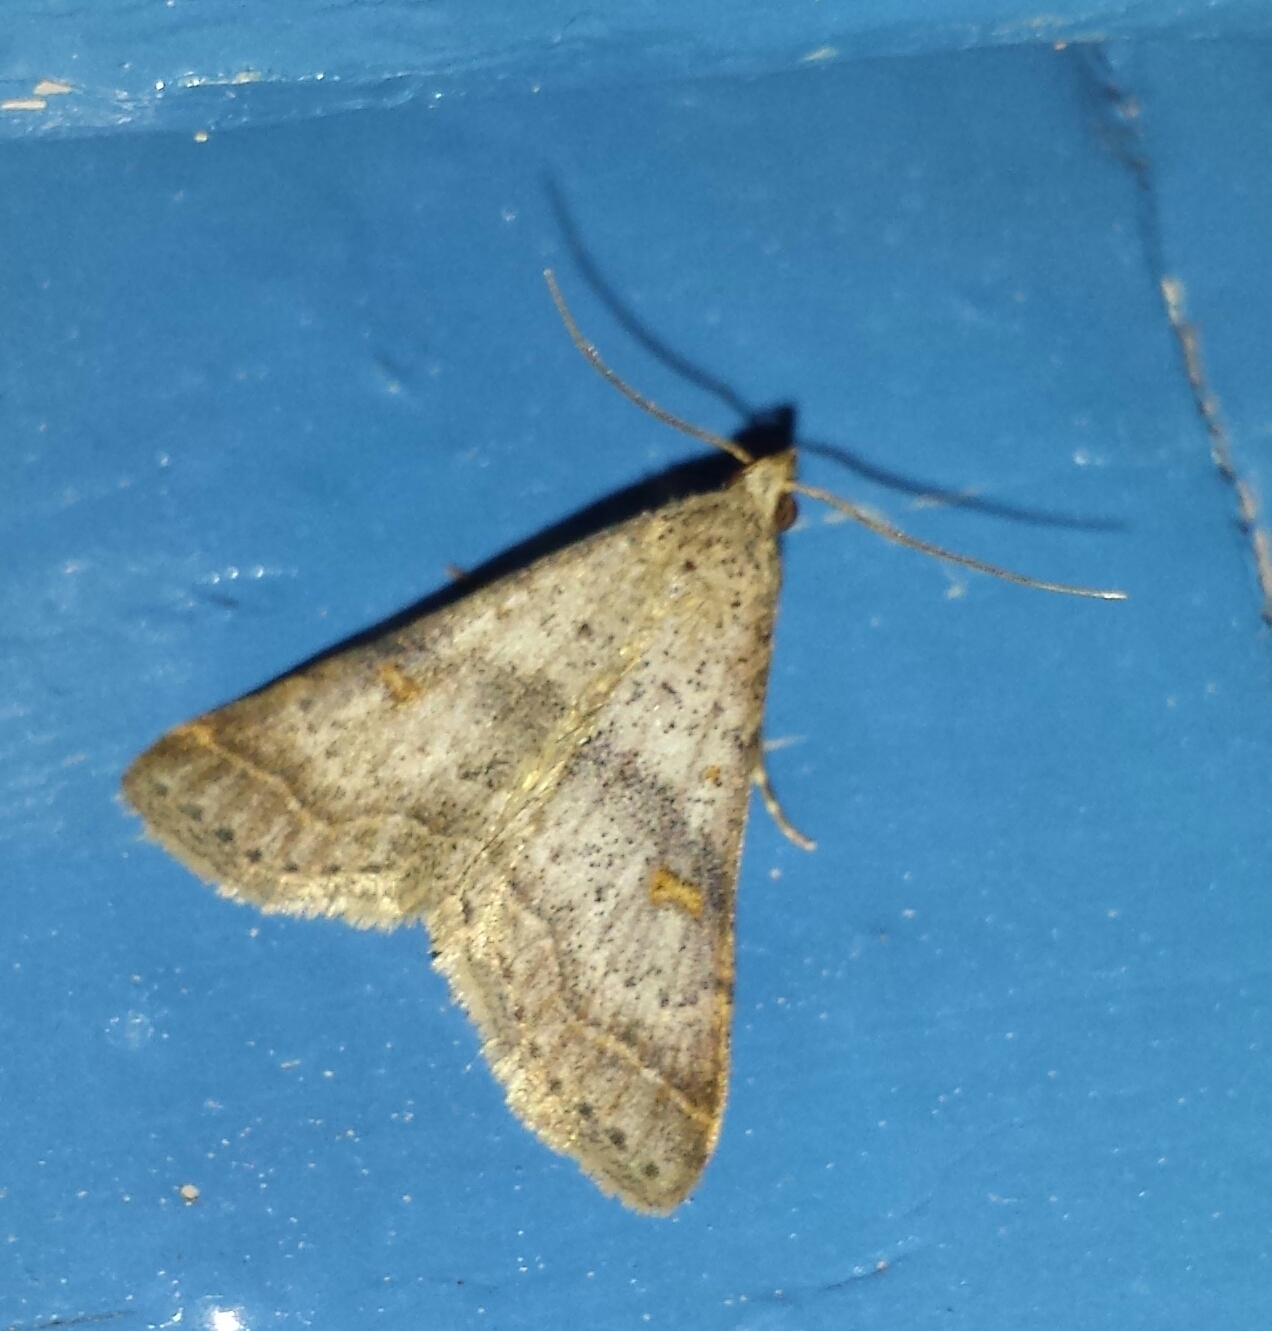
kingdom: Animalia
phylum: Arthropoda
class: Insecta
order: Lepidoptera
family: Erebidae
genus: Bleptina
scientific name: Bleptina caradrinalis
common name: Bent-winged owlet
